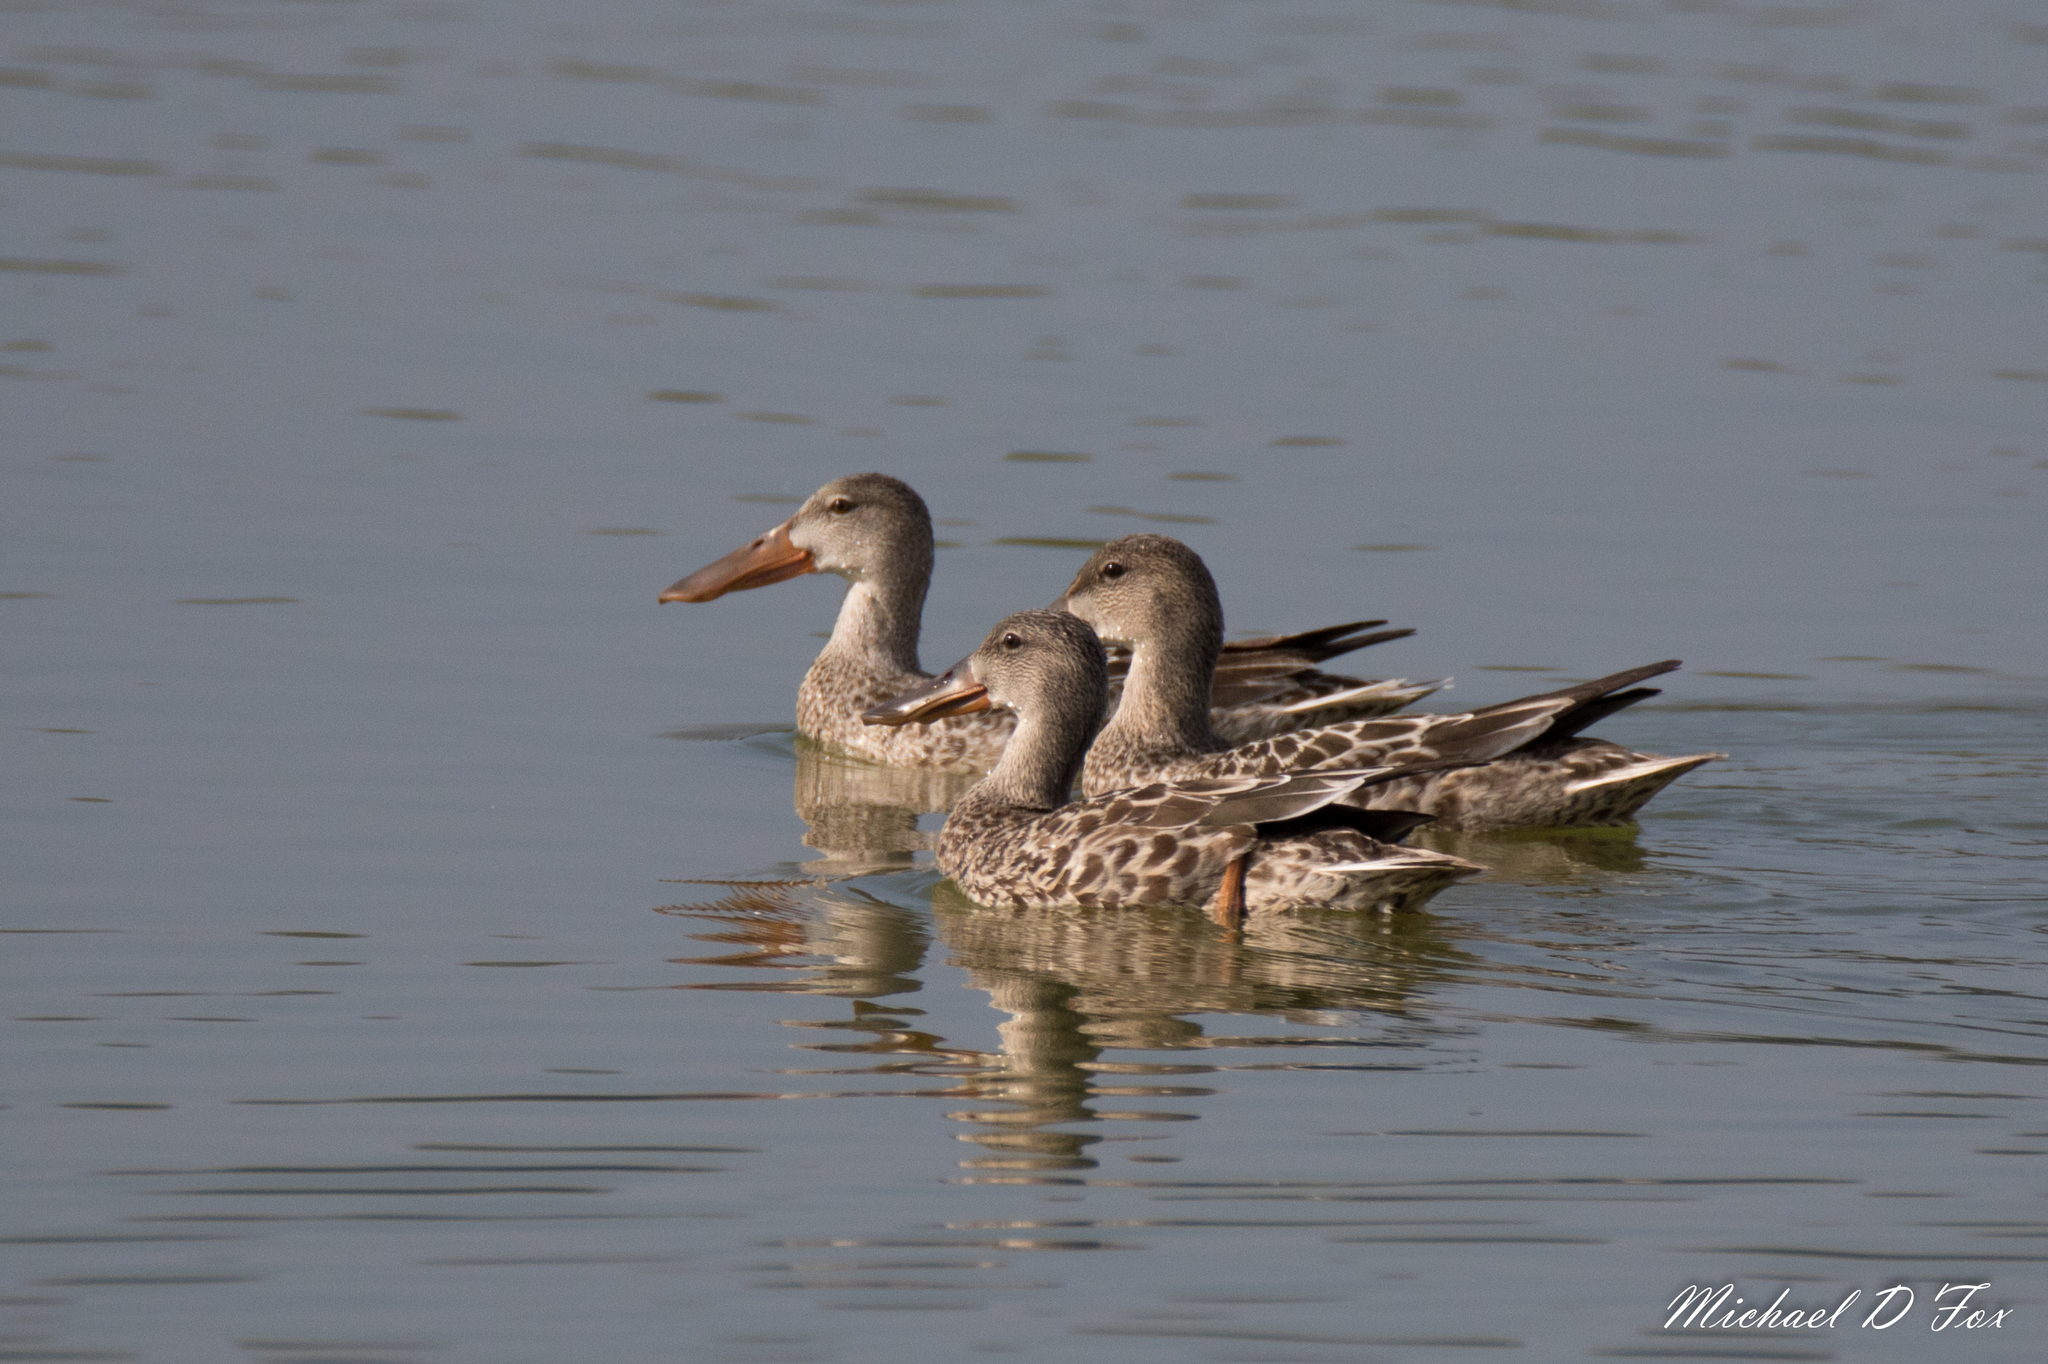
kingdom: Animalia
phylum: Chordata
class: Aves
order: Anseriformes
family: Anatidae
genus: Spatula
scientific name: Spatula clypeata
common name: Northern shoveler
